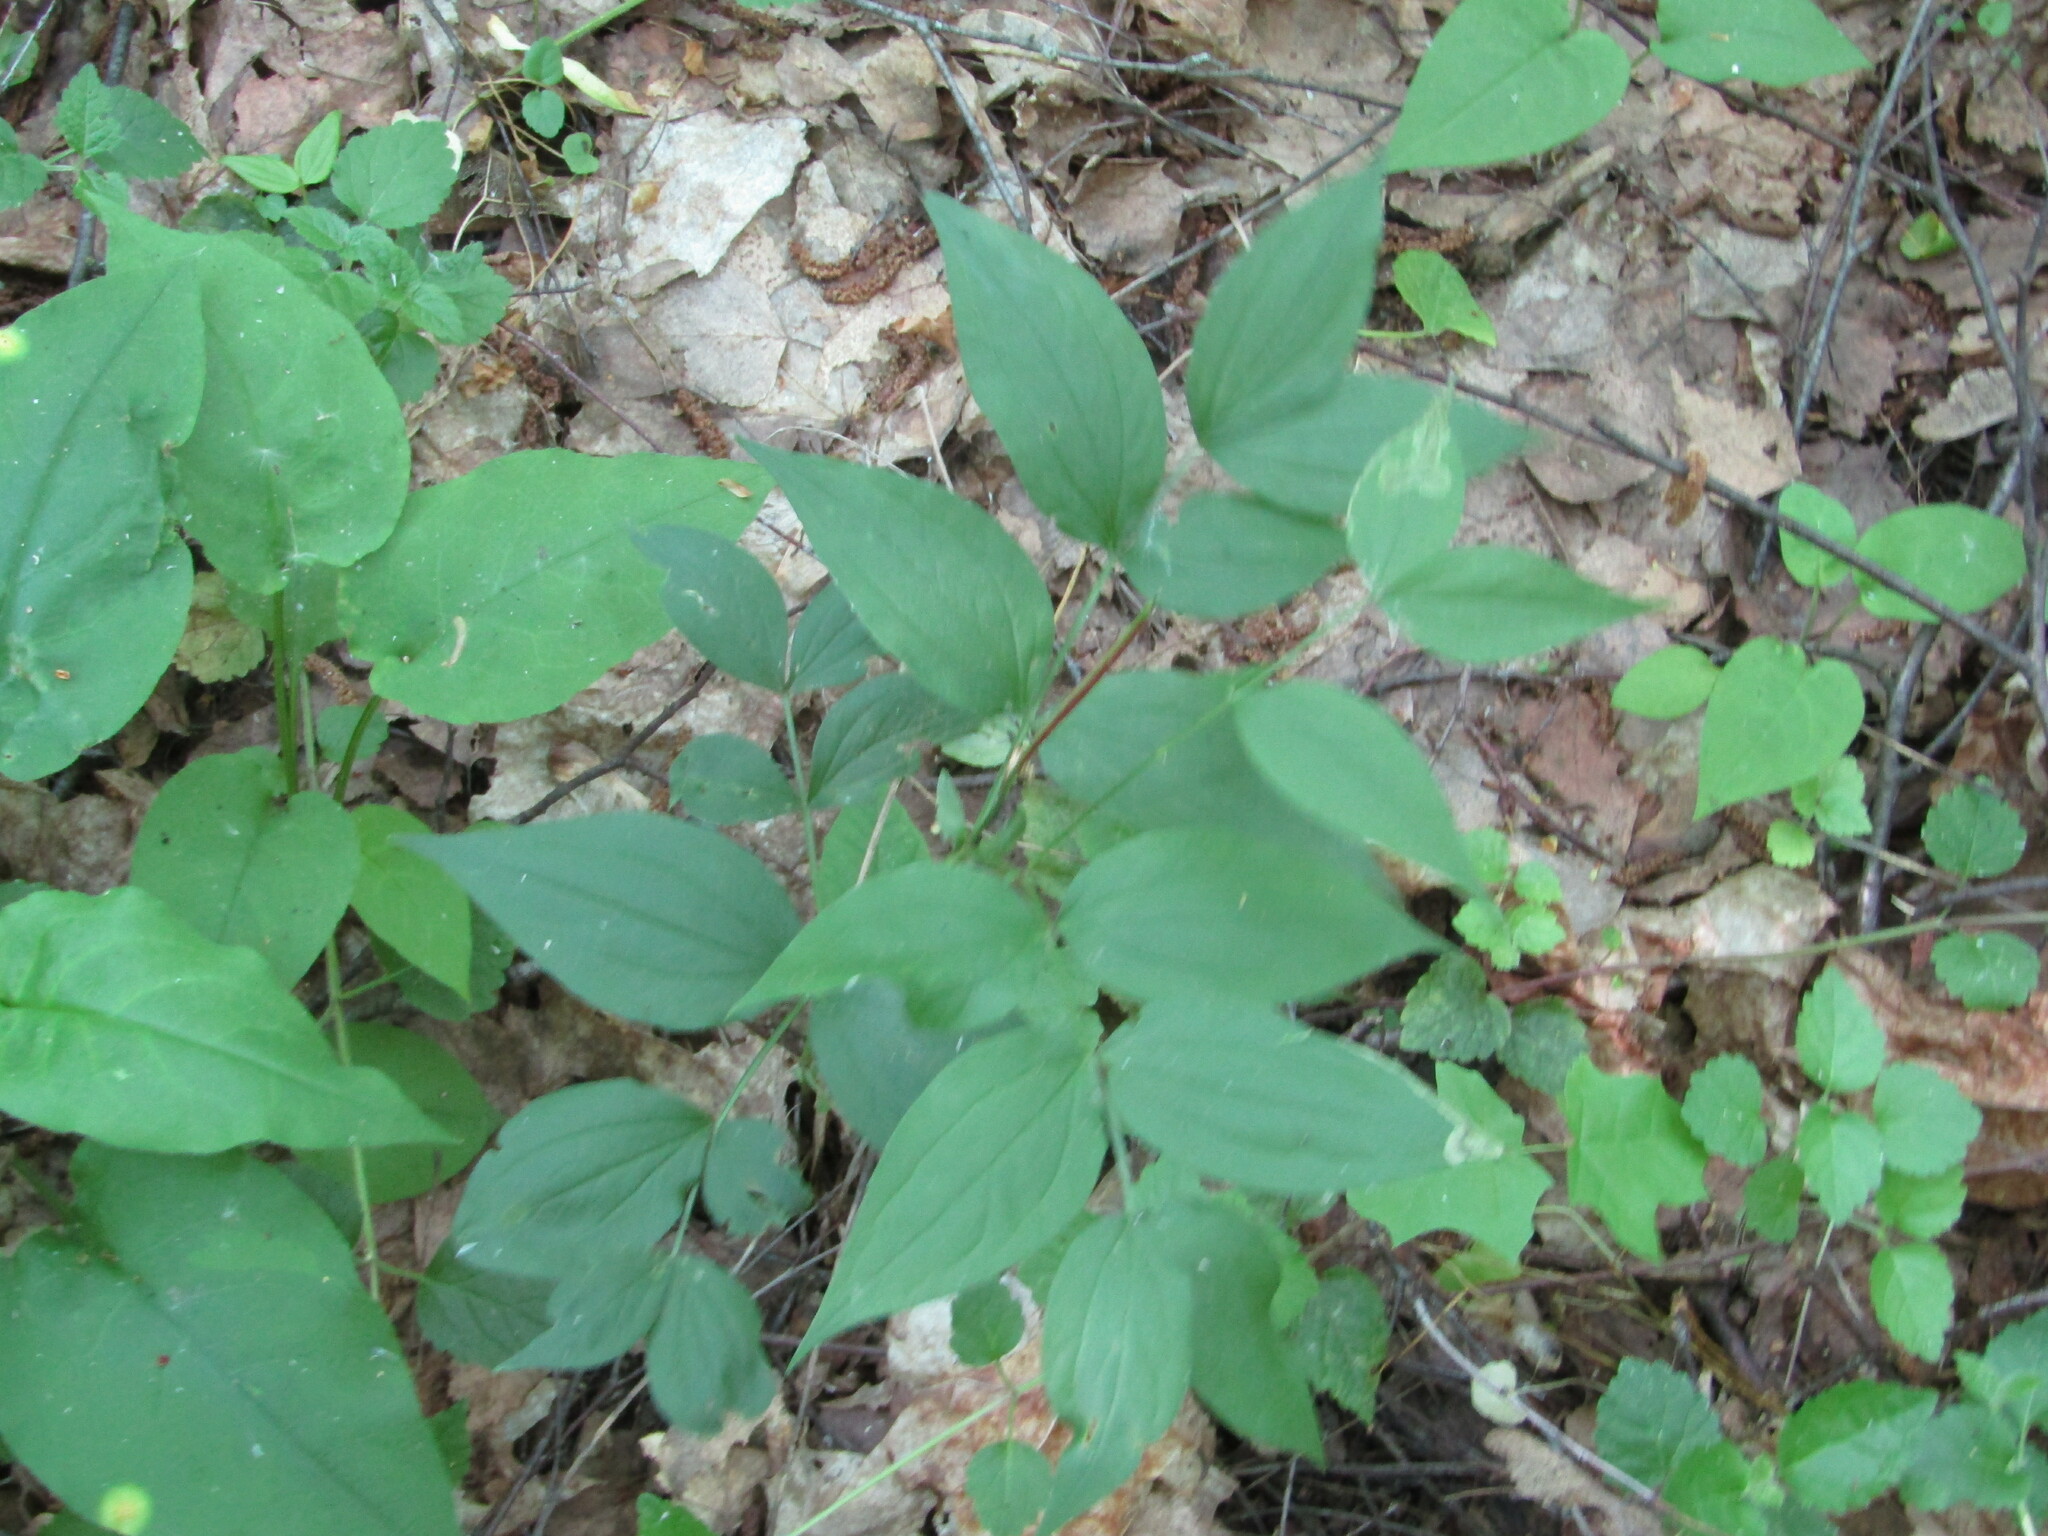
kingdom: Plantae
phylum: Tracheophyta
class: Magnoliopsida
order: Fabales
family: Fabaceae
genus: Lathyrus
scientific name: Lathyrus vernus
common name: Spring pea
